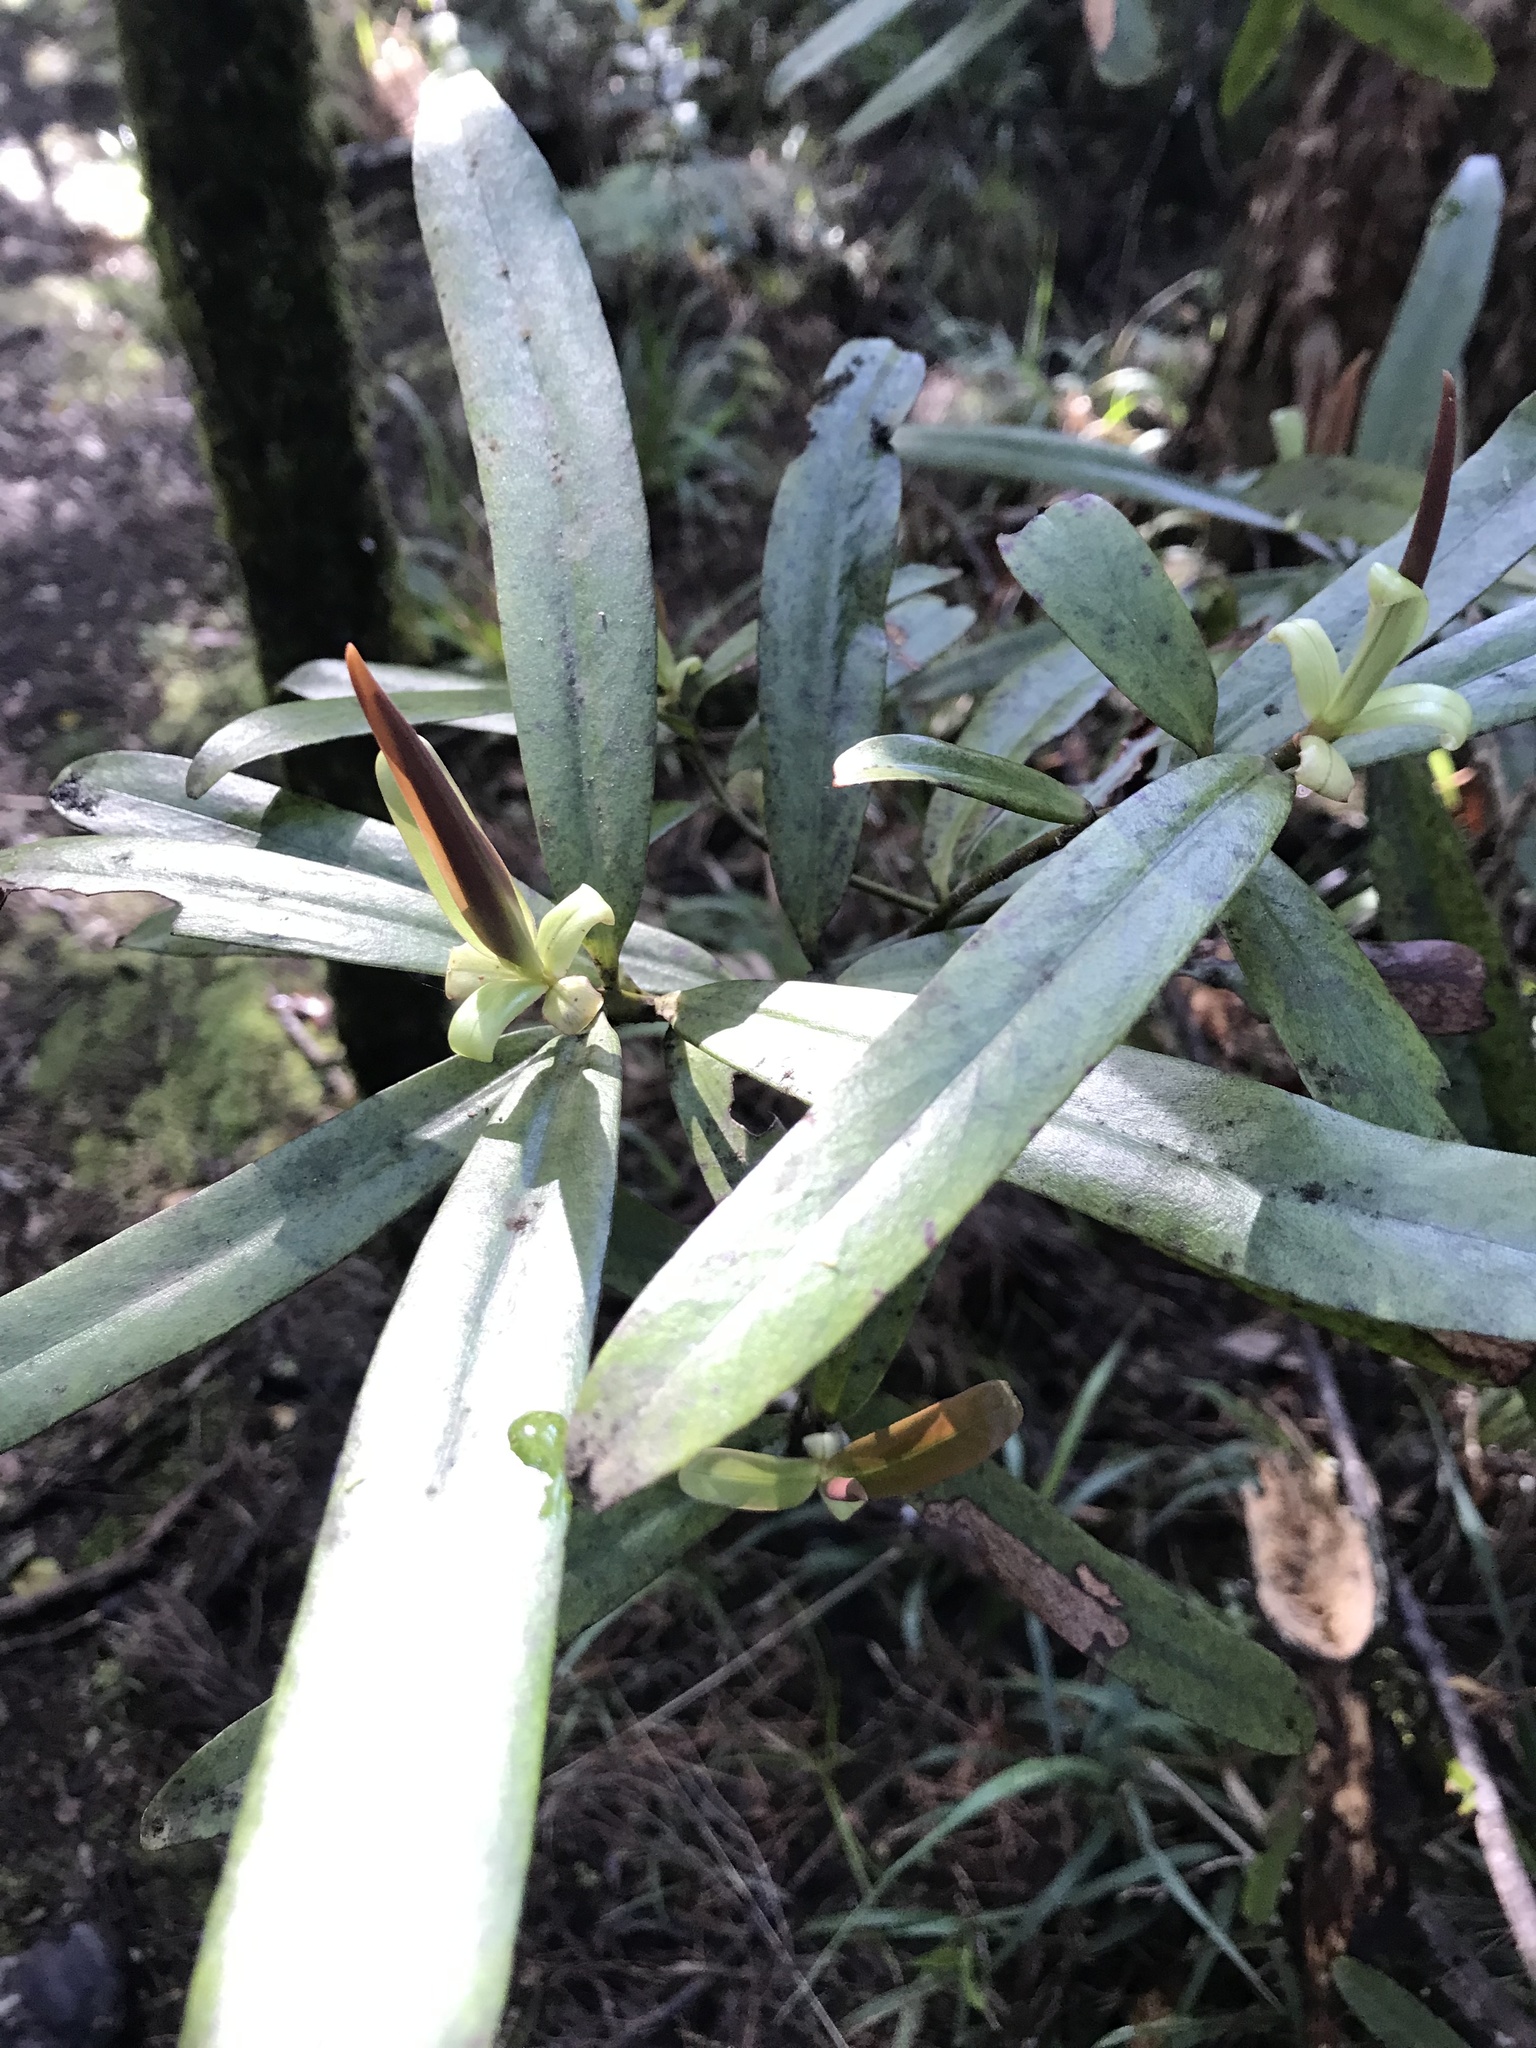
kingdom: Plantae
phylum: Tracheophyta
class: Magnoliopsida
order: Ericales
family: Primulaceae
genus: Myrsine
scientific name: Myrsine salicina
